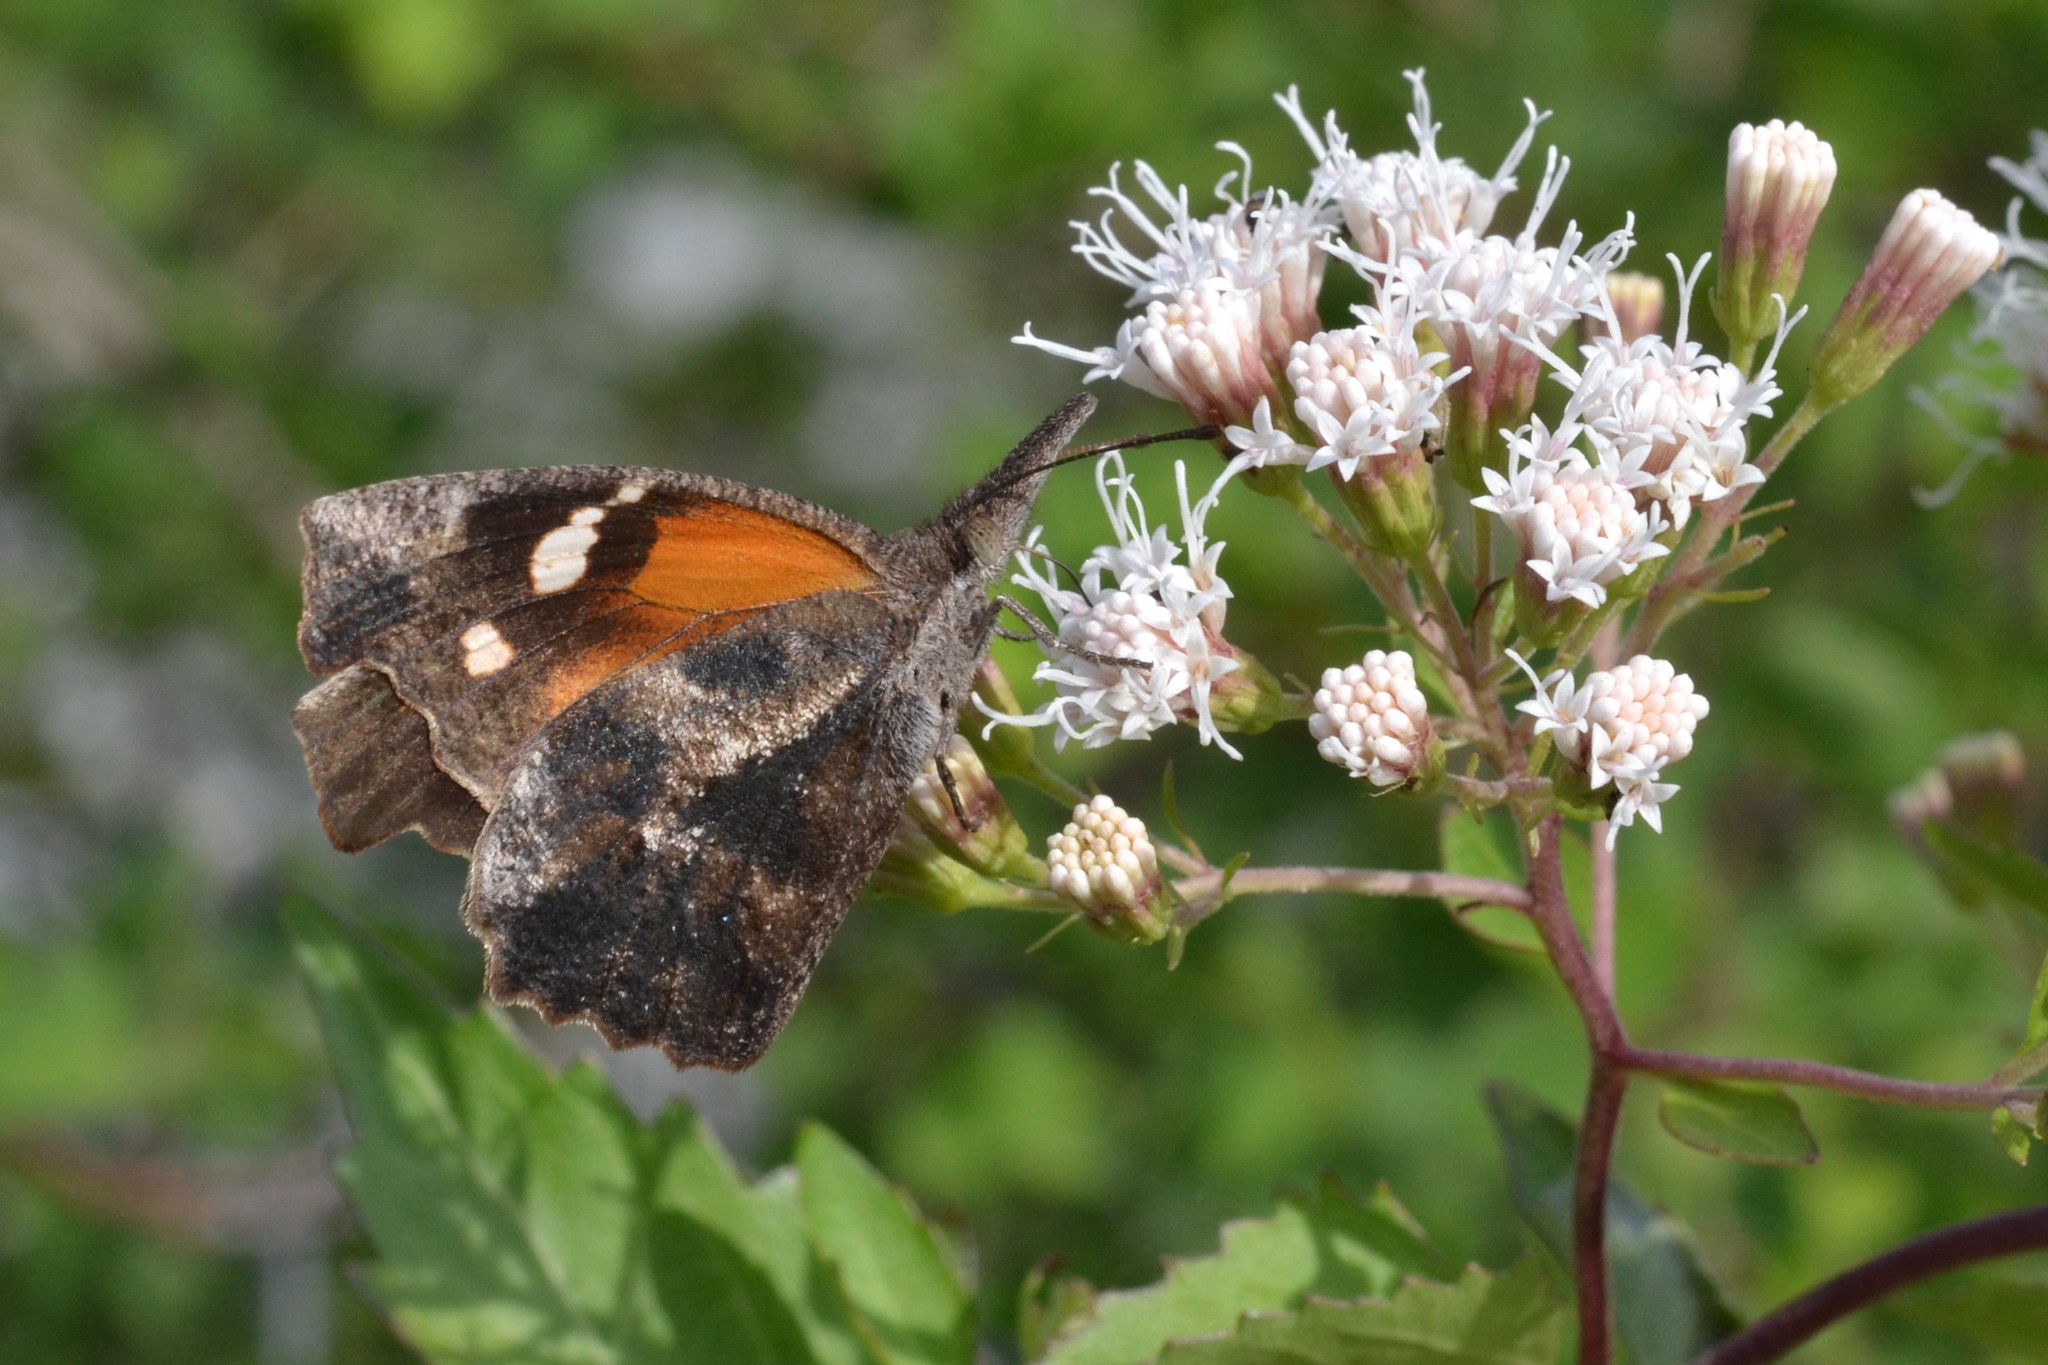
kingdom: Animalia
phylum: Arthropoda
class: Insecta
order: Lepidoptera
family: Nymphalidae
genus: Libytheana
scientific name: Libytheana carinenta
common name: American snout
